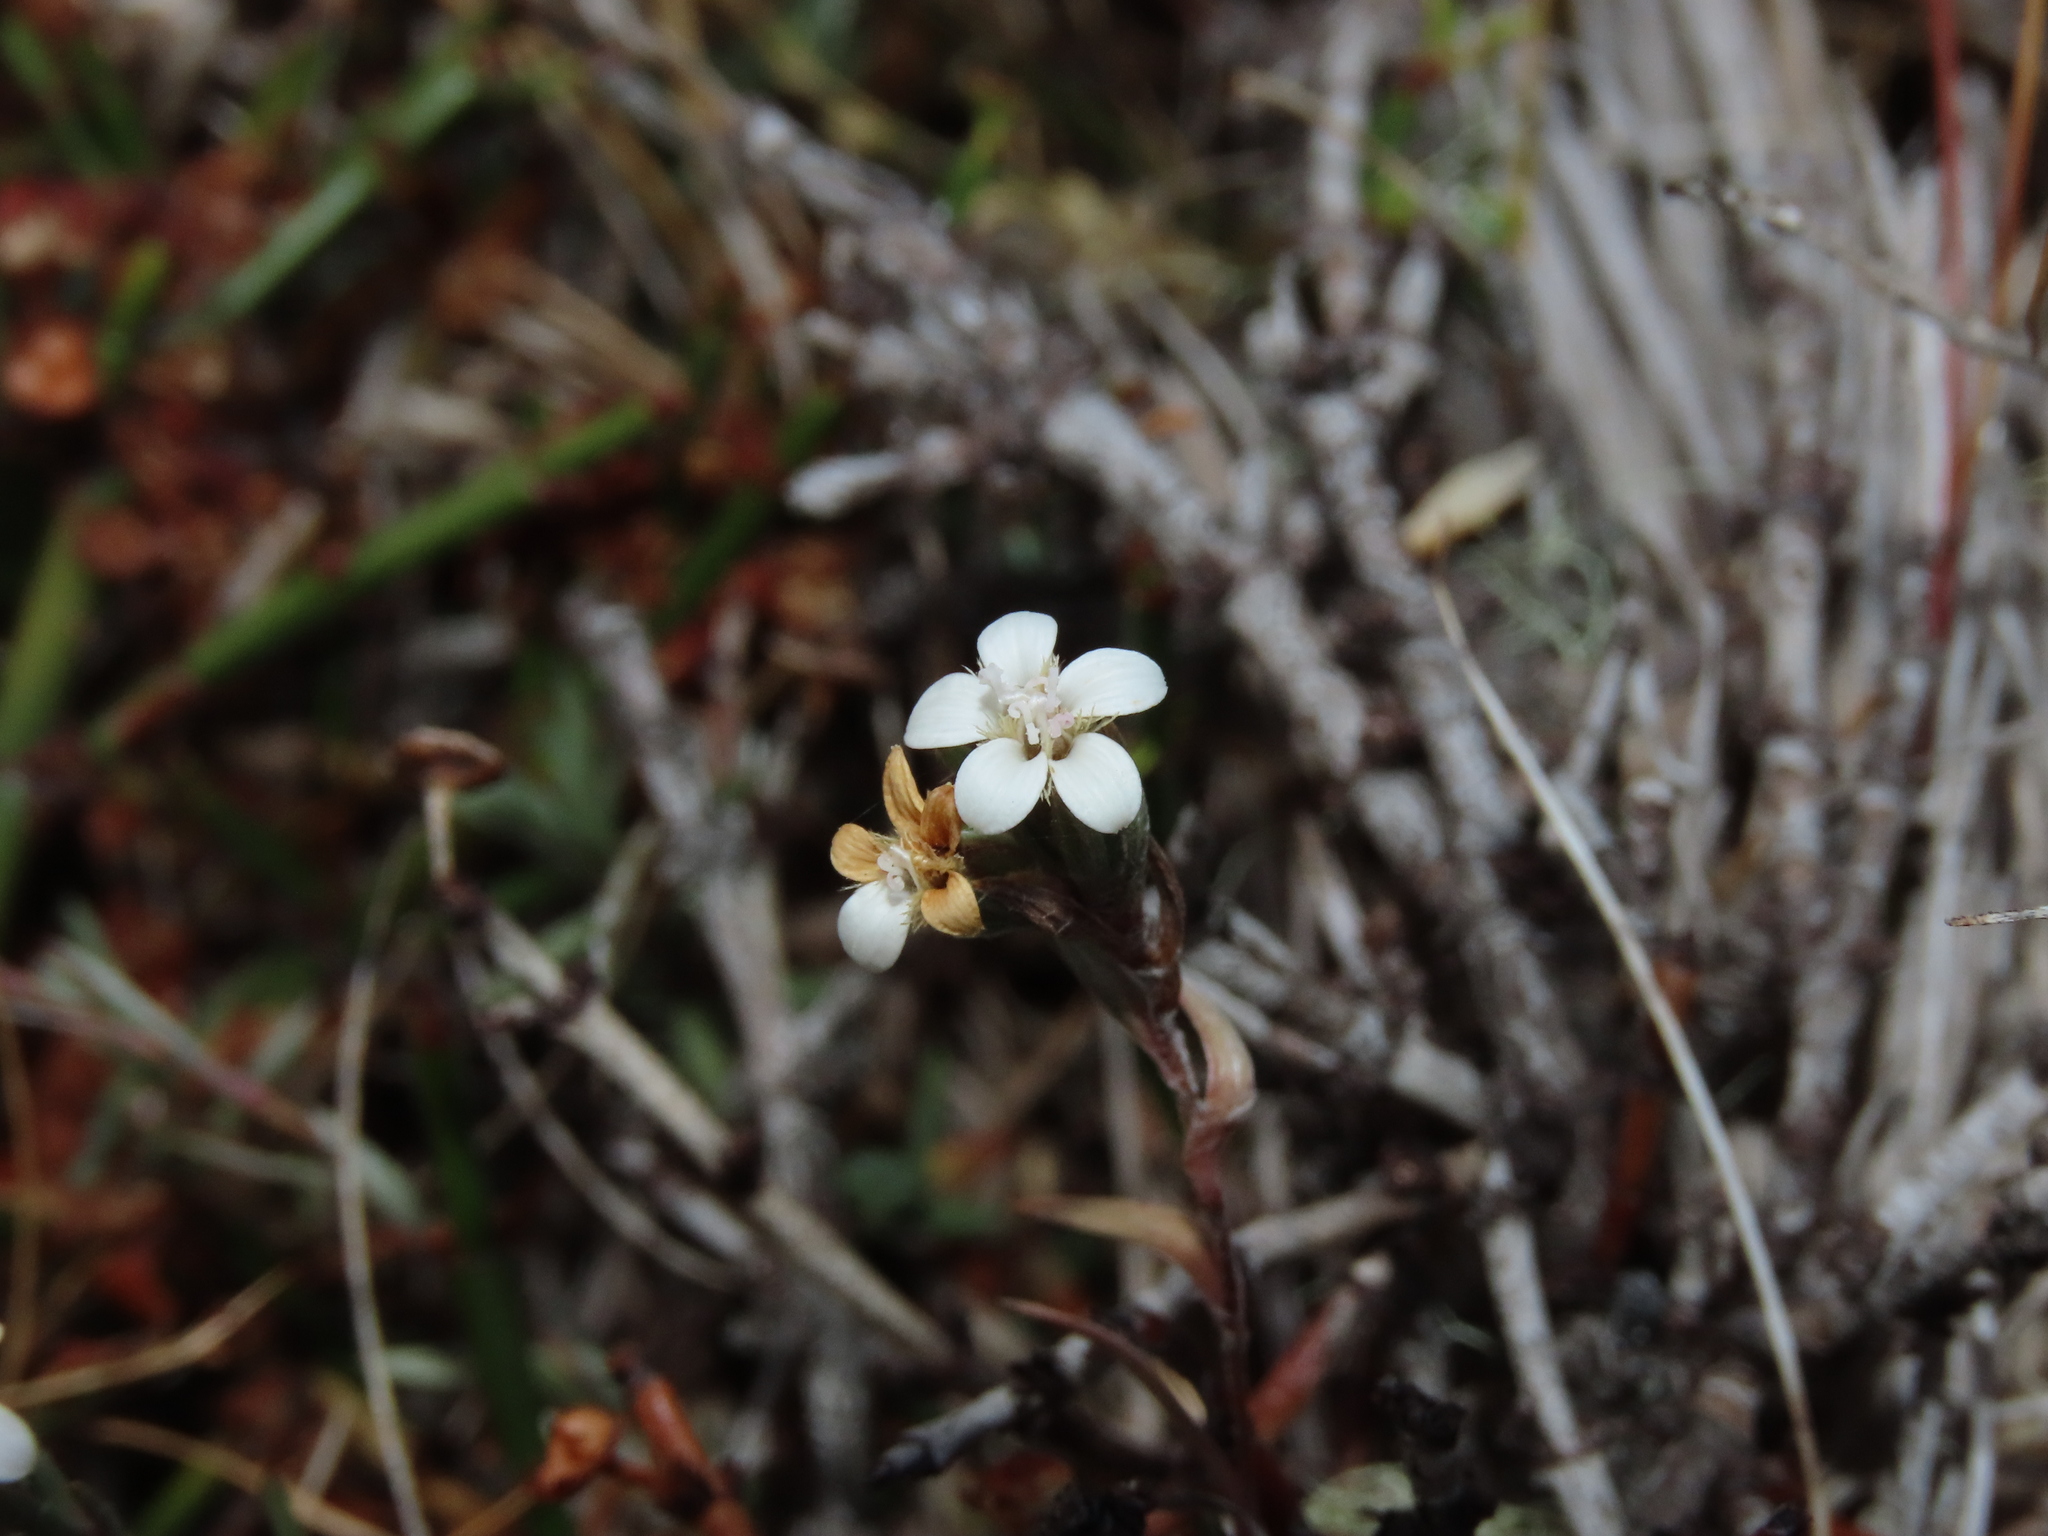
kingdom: Plantae
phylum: Tracheophyta
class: Magnoliopsida
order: Asterales
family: Asteraceae
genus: Nassauvia
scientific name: Nassauvia darwinii
